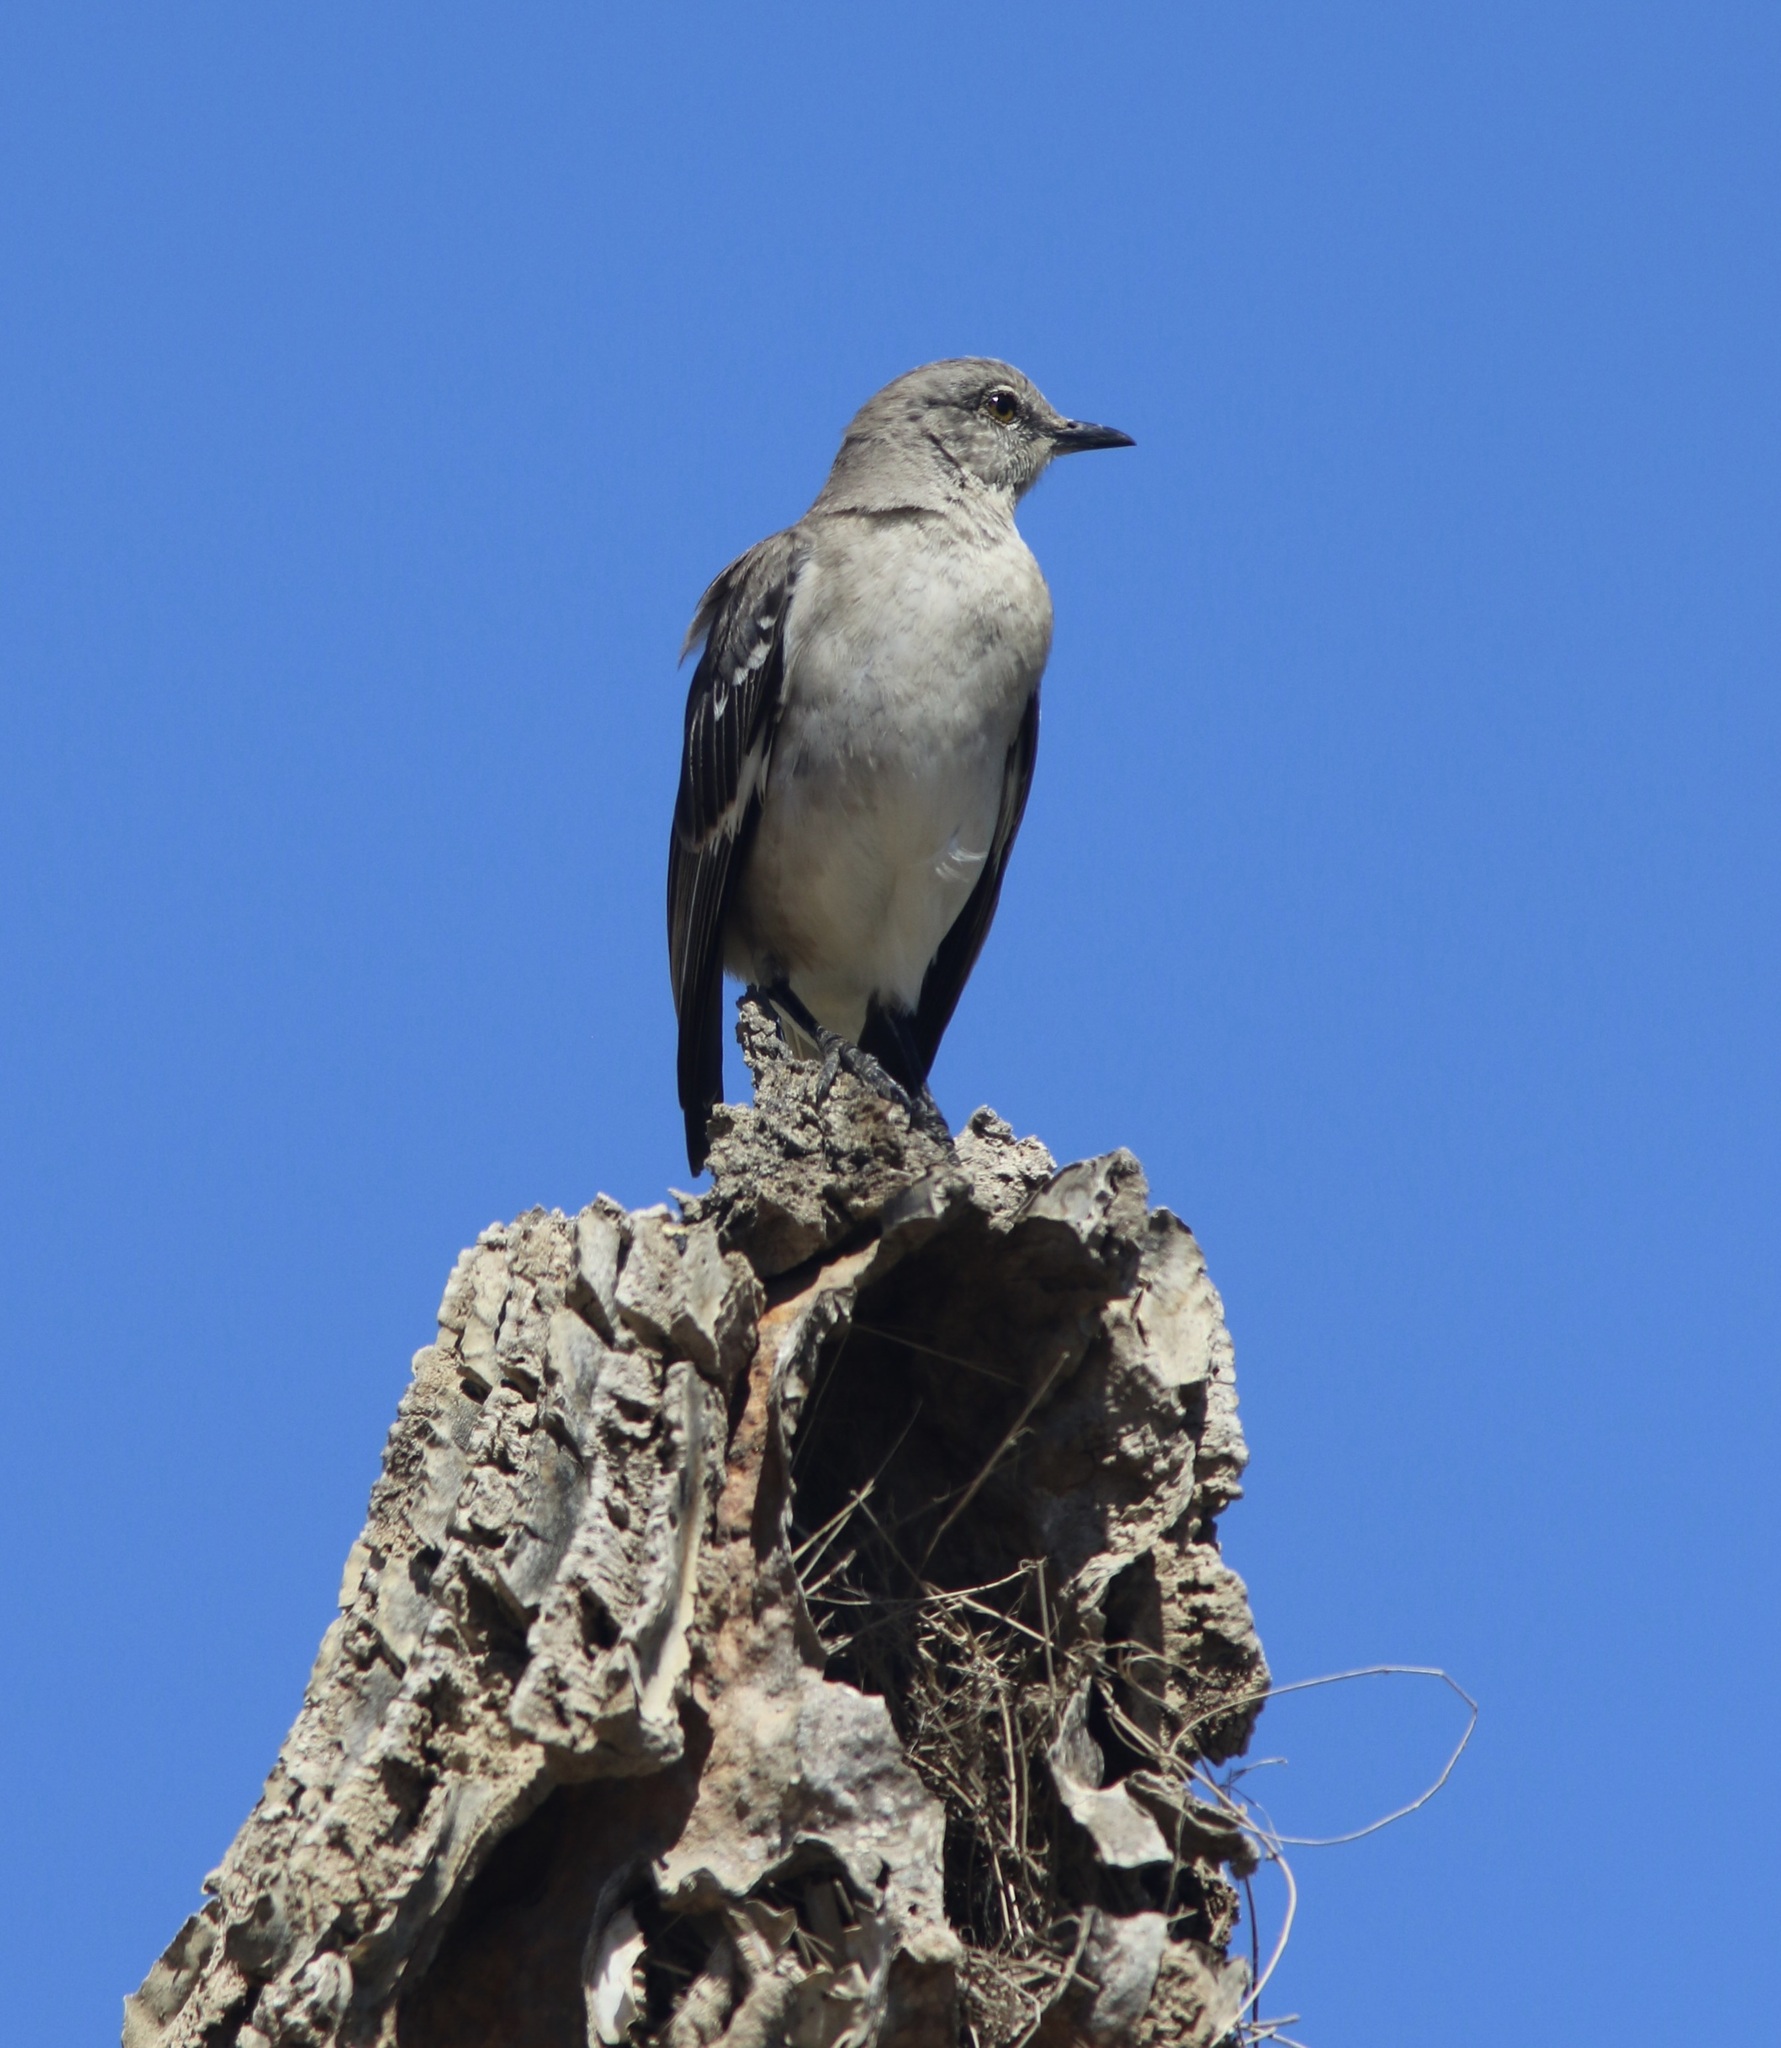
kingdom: Animalia
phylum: Chordata
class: Aves
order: Passeriformes
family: Mimidae
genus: Mimus
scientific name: Mimus polyglottos
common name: Northern mockingbird
